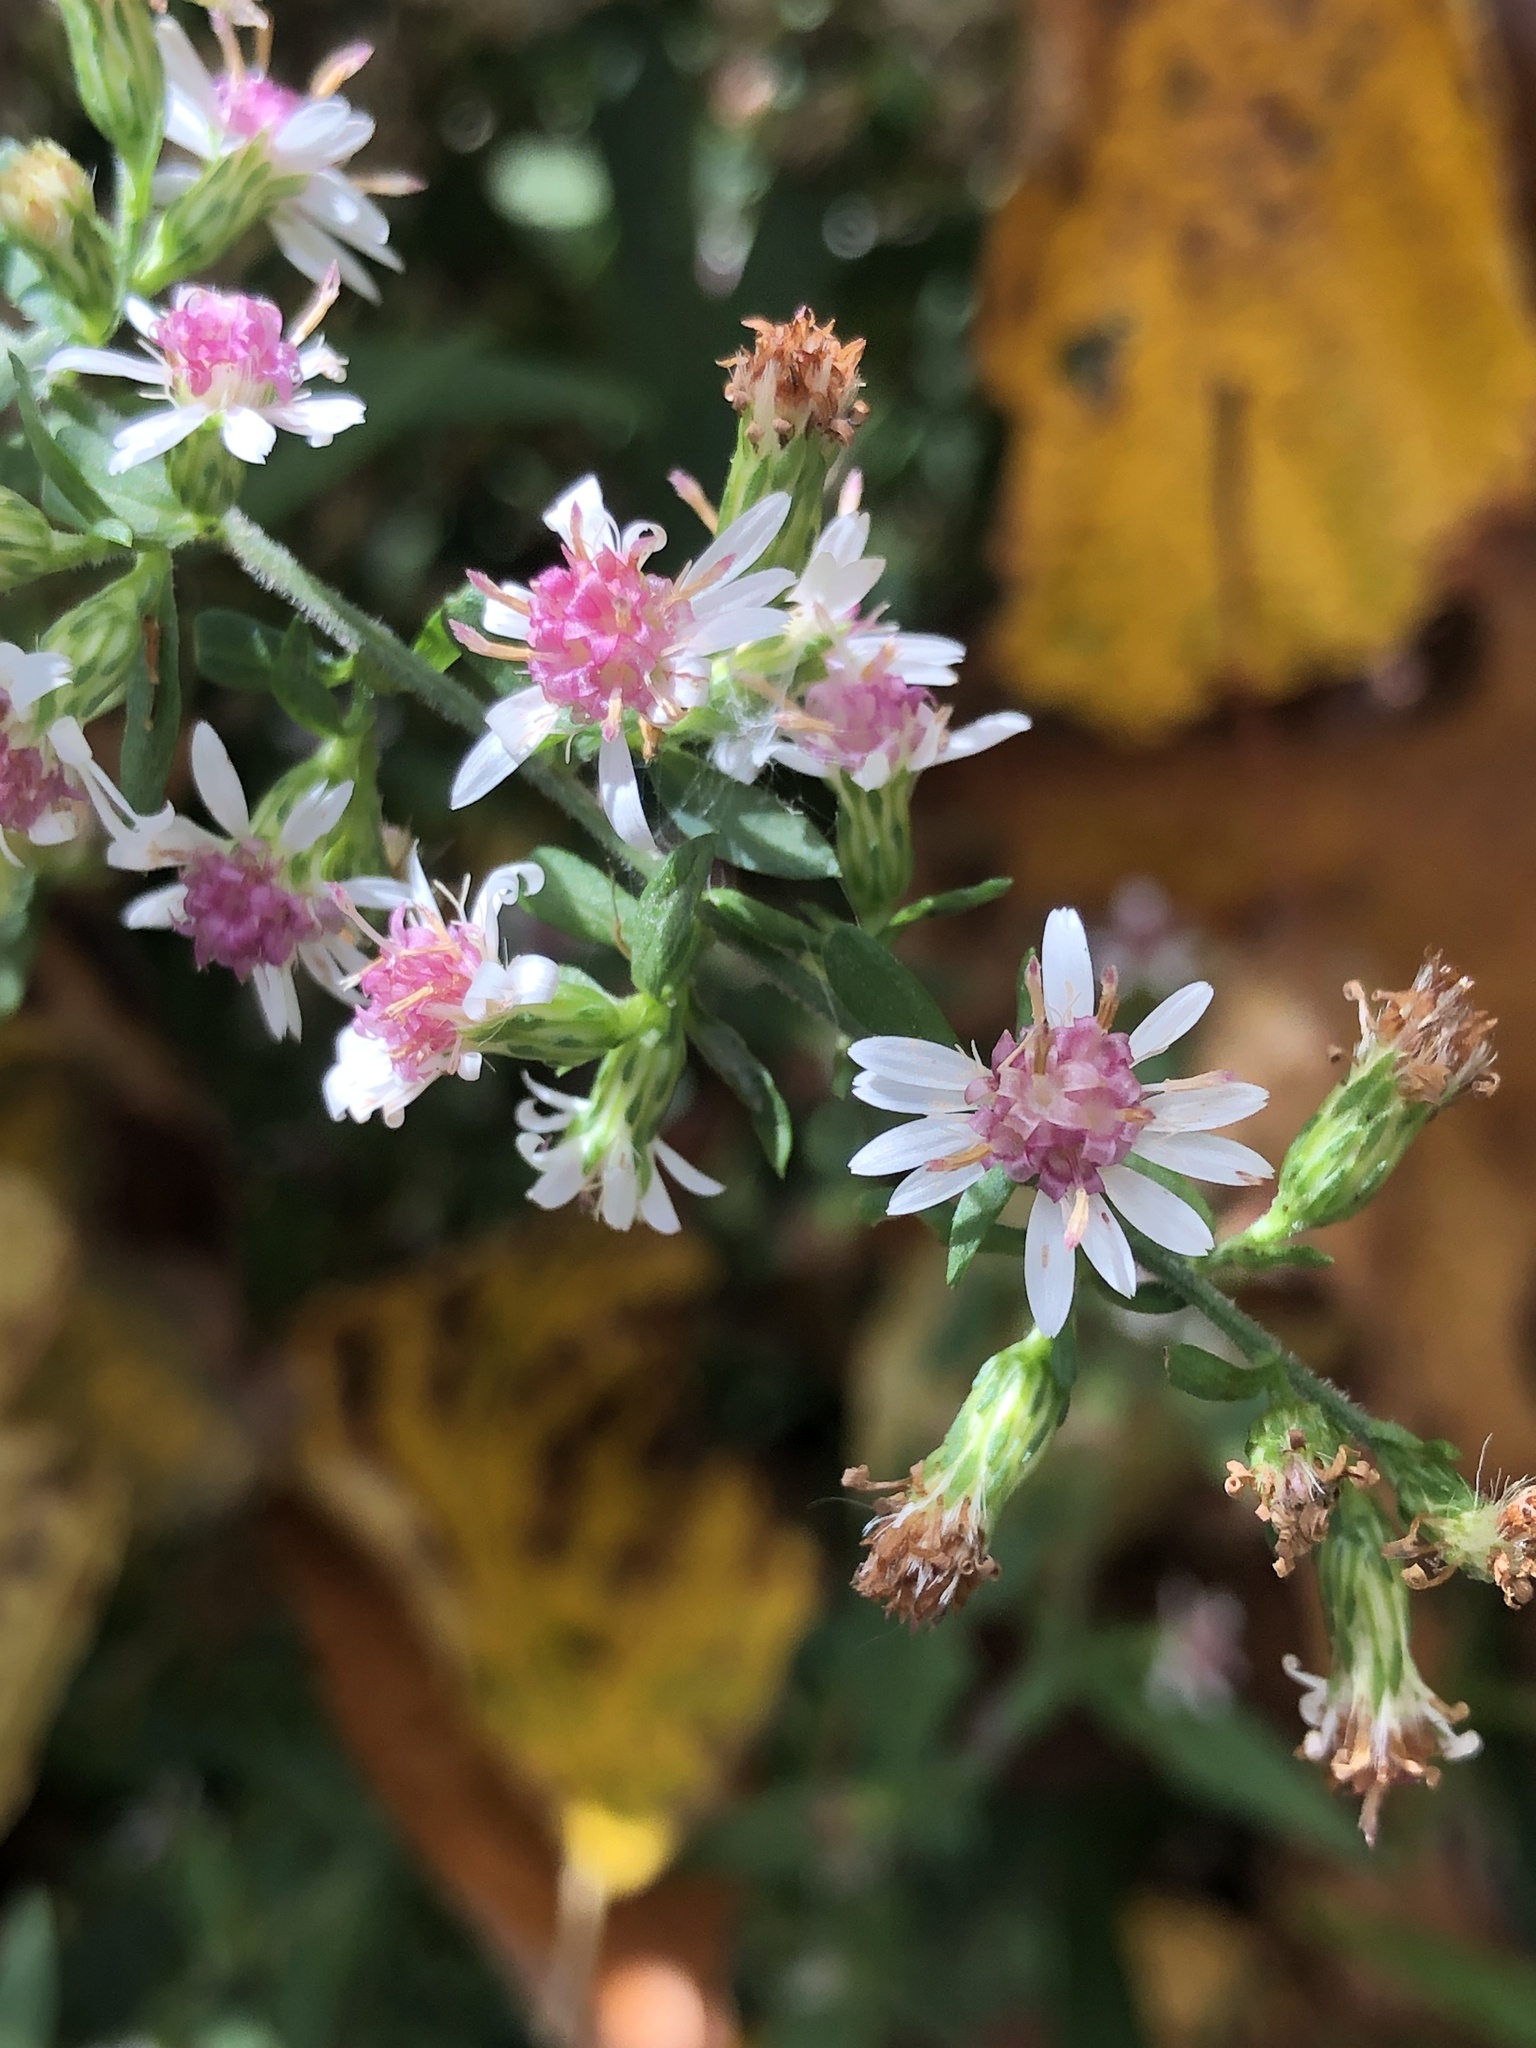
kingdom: Plantae
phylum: Tracheophyta
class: Magnoliopsida
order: Asterales
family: Asteraceae
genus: Symphyotrichum
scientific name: Symphyotrichum lateriflorum
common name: Calico aster
